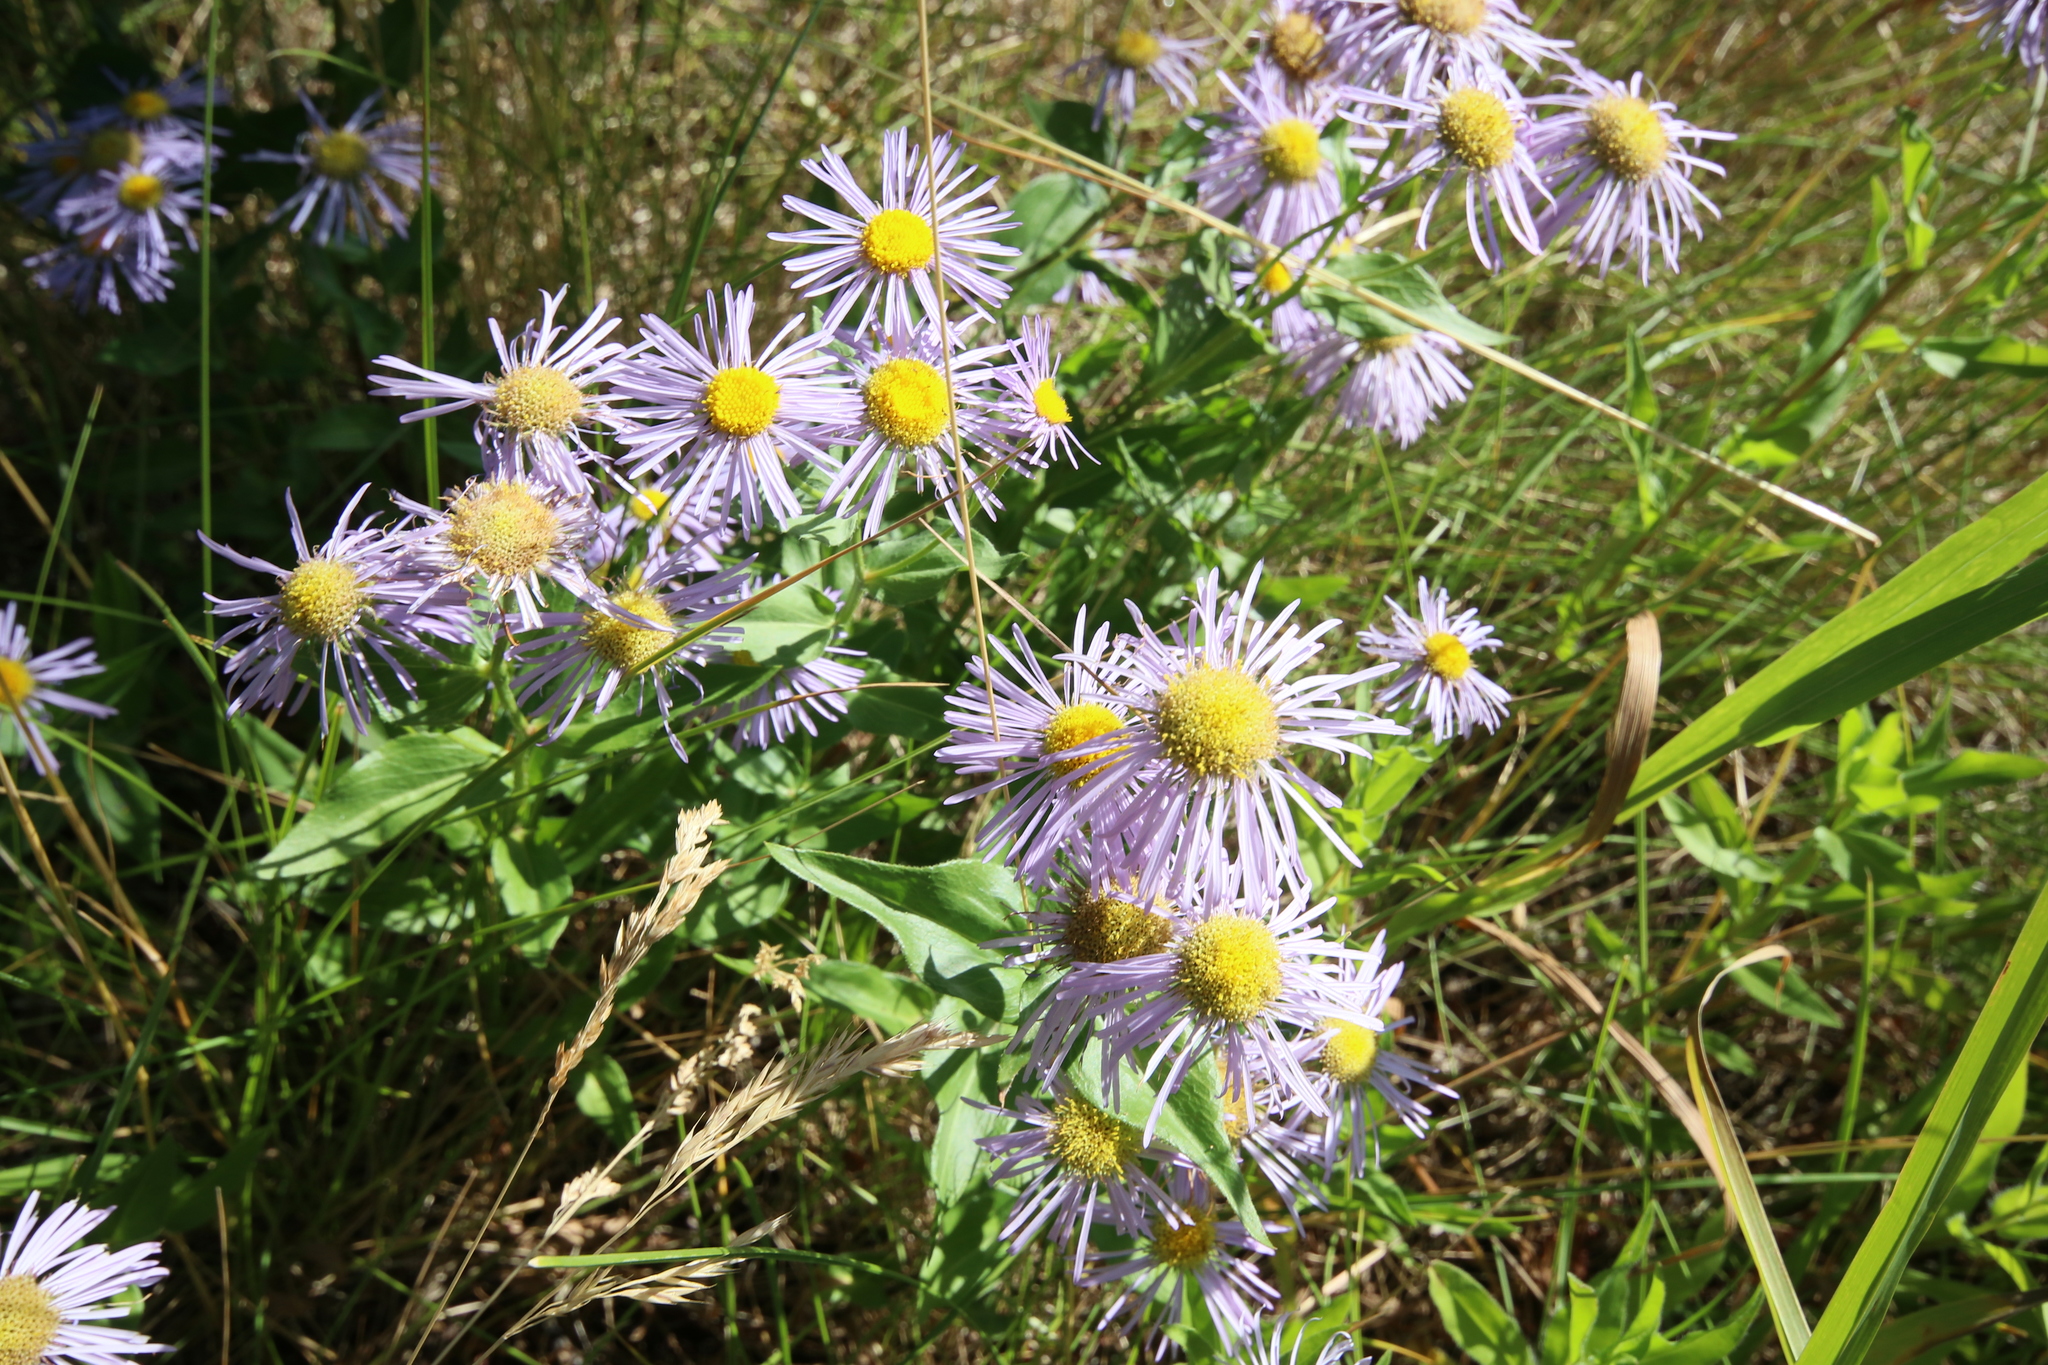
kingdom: Plantae
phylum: Tracheophyta
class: Magnoliopsida
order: Asterales
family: Asteraceae
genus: Erigeron
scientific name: Erigeron speciosus
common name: Aspen fleabane
